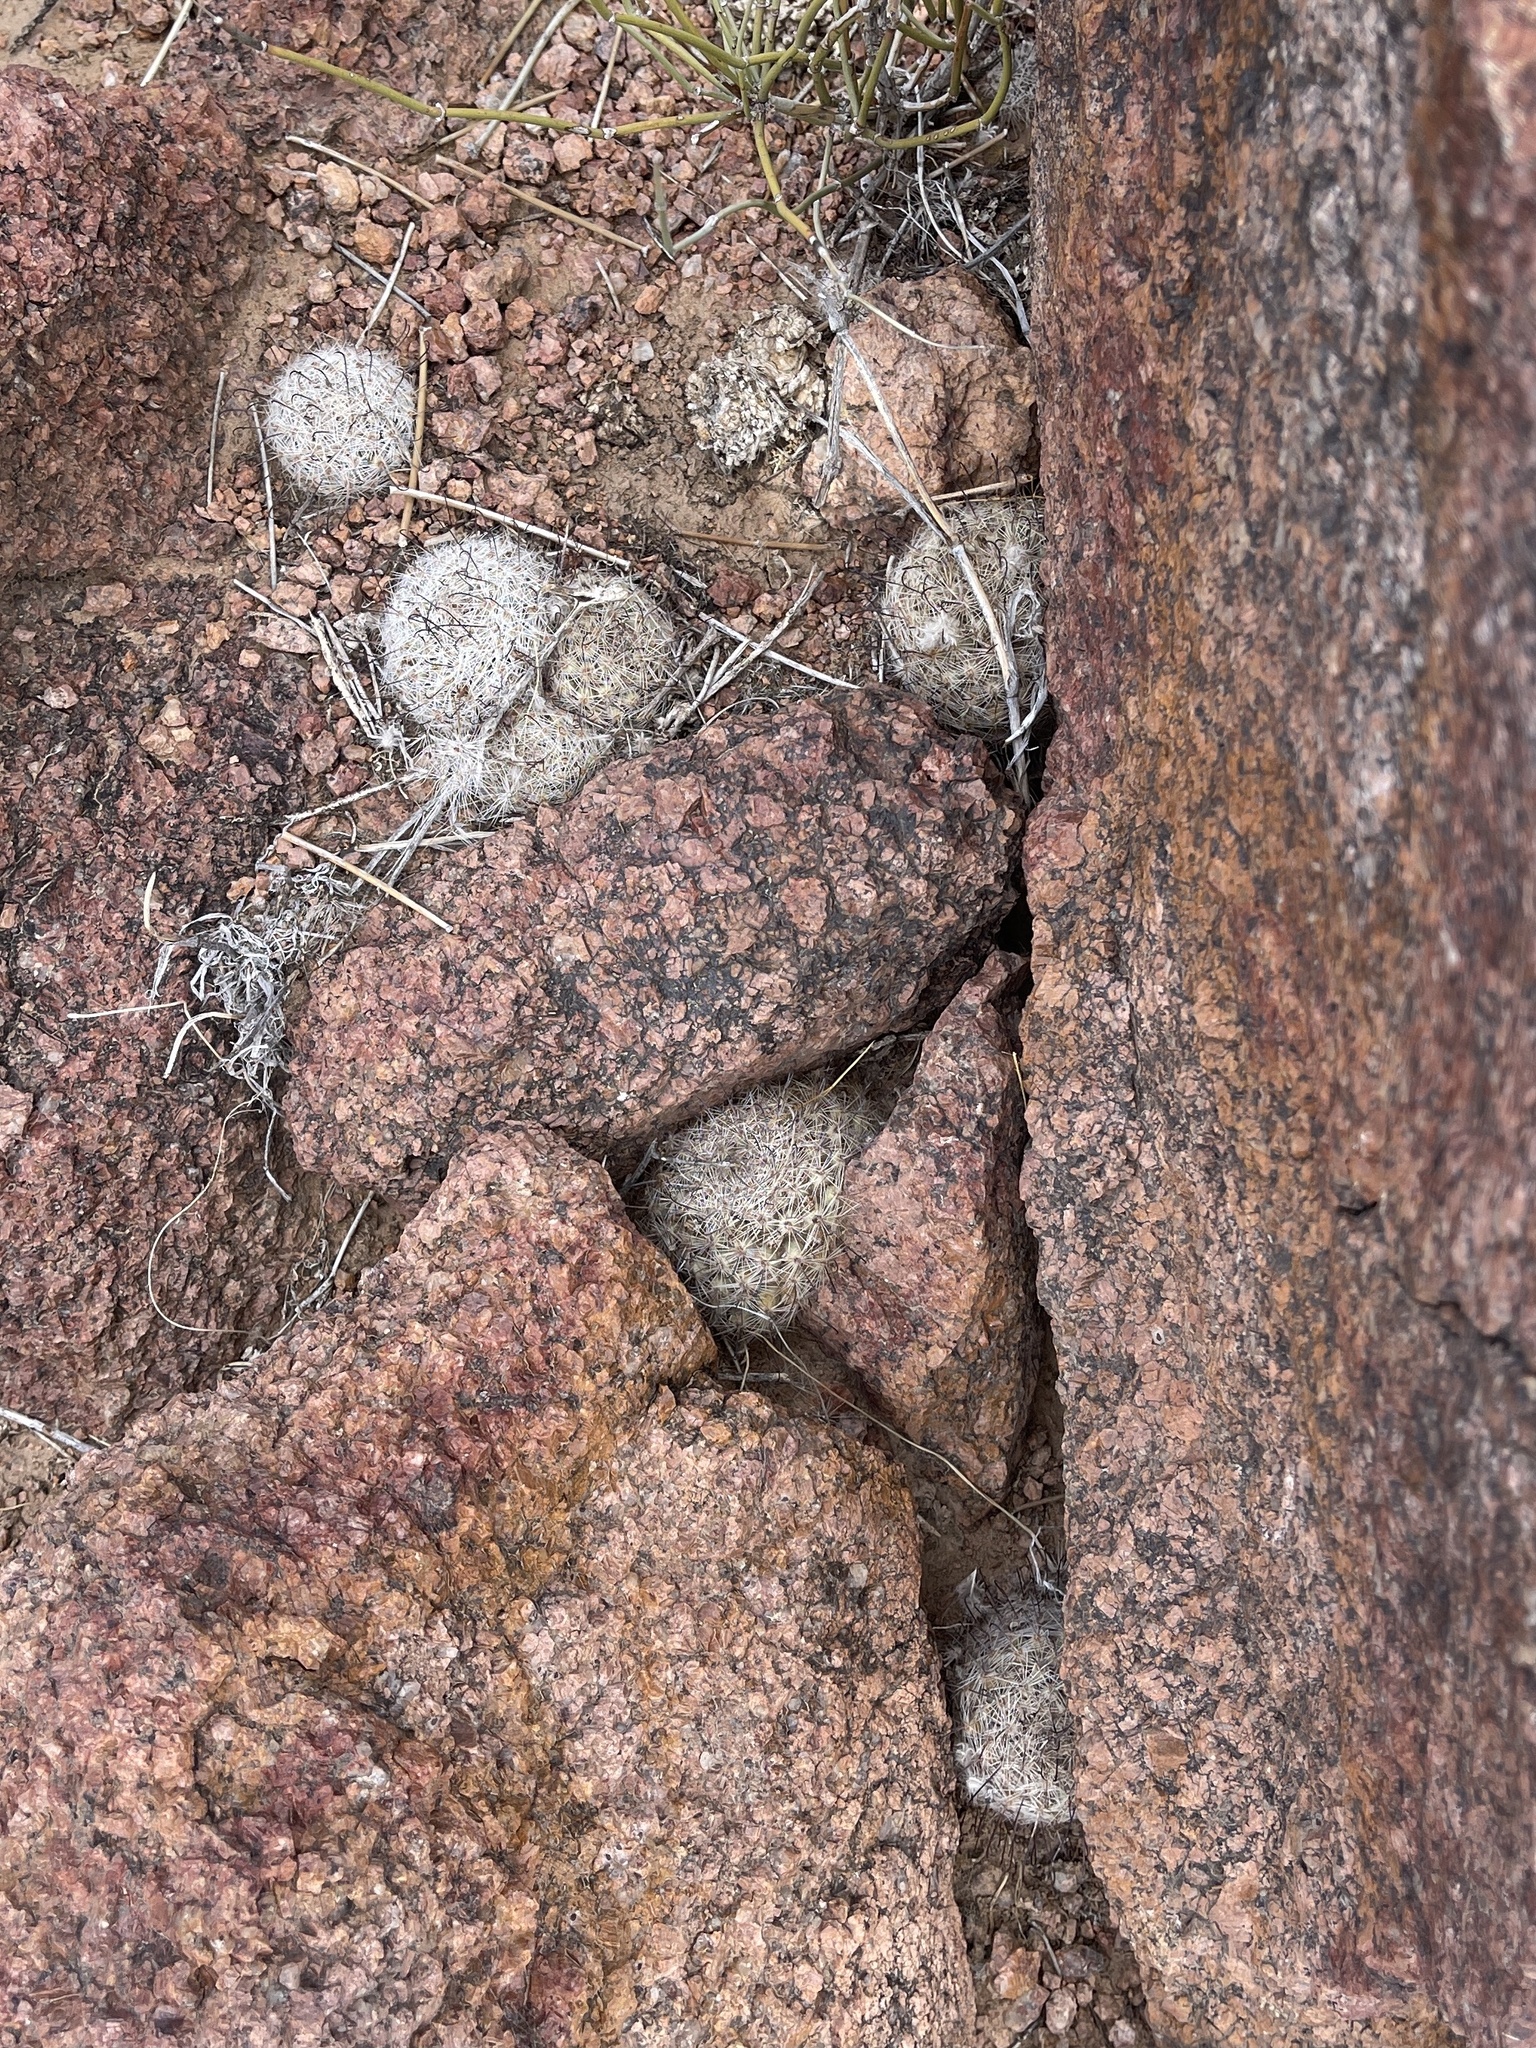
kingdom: Plantae
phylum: Tracheophyta
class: Magnoliopsida
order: Caryophyllales
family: Cactaceae
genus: Cochemiea
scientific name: Cochemiea grahamii
